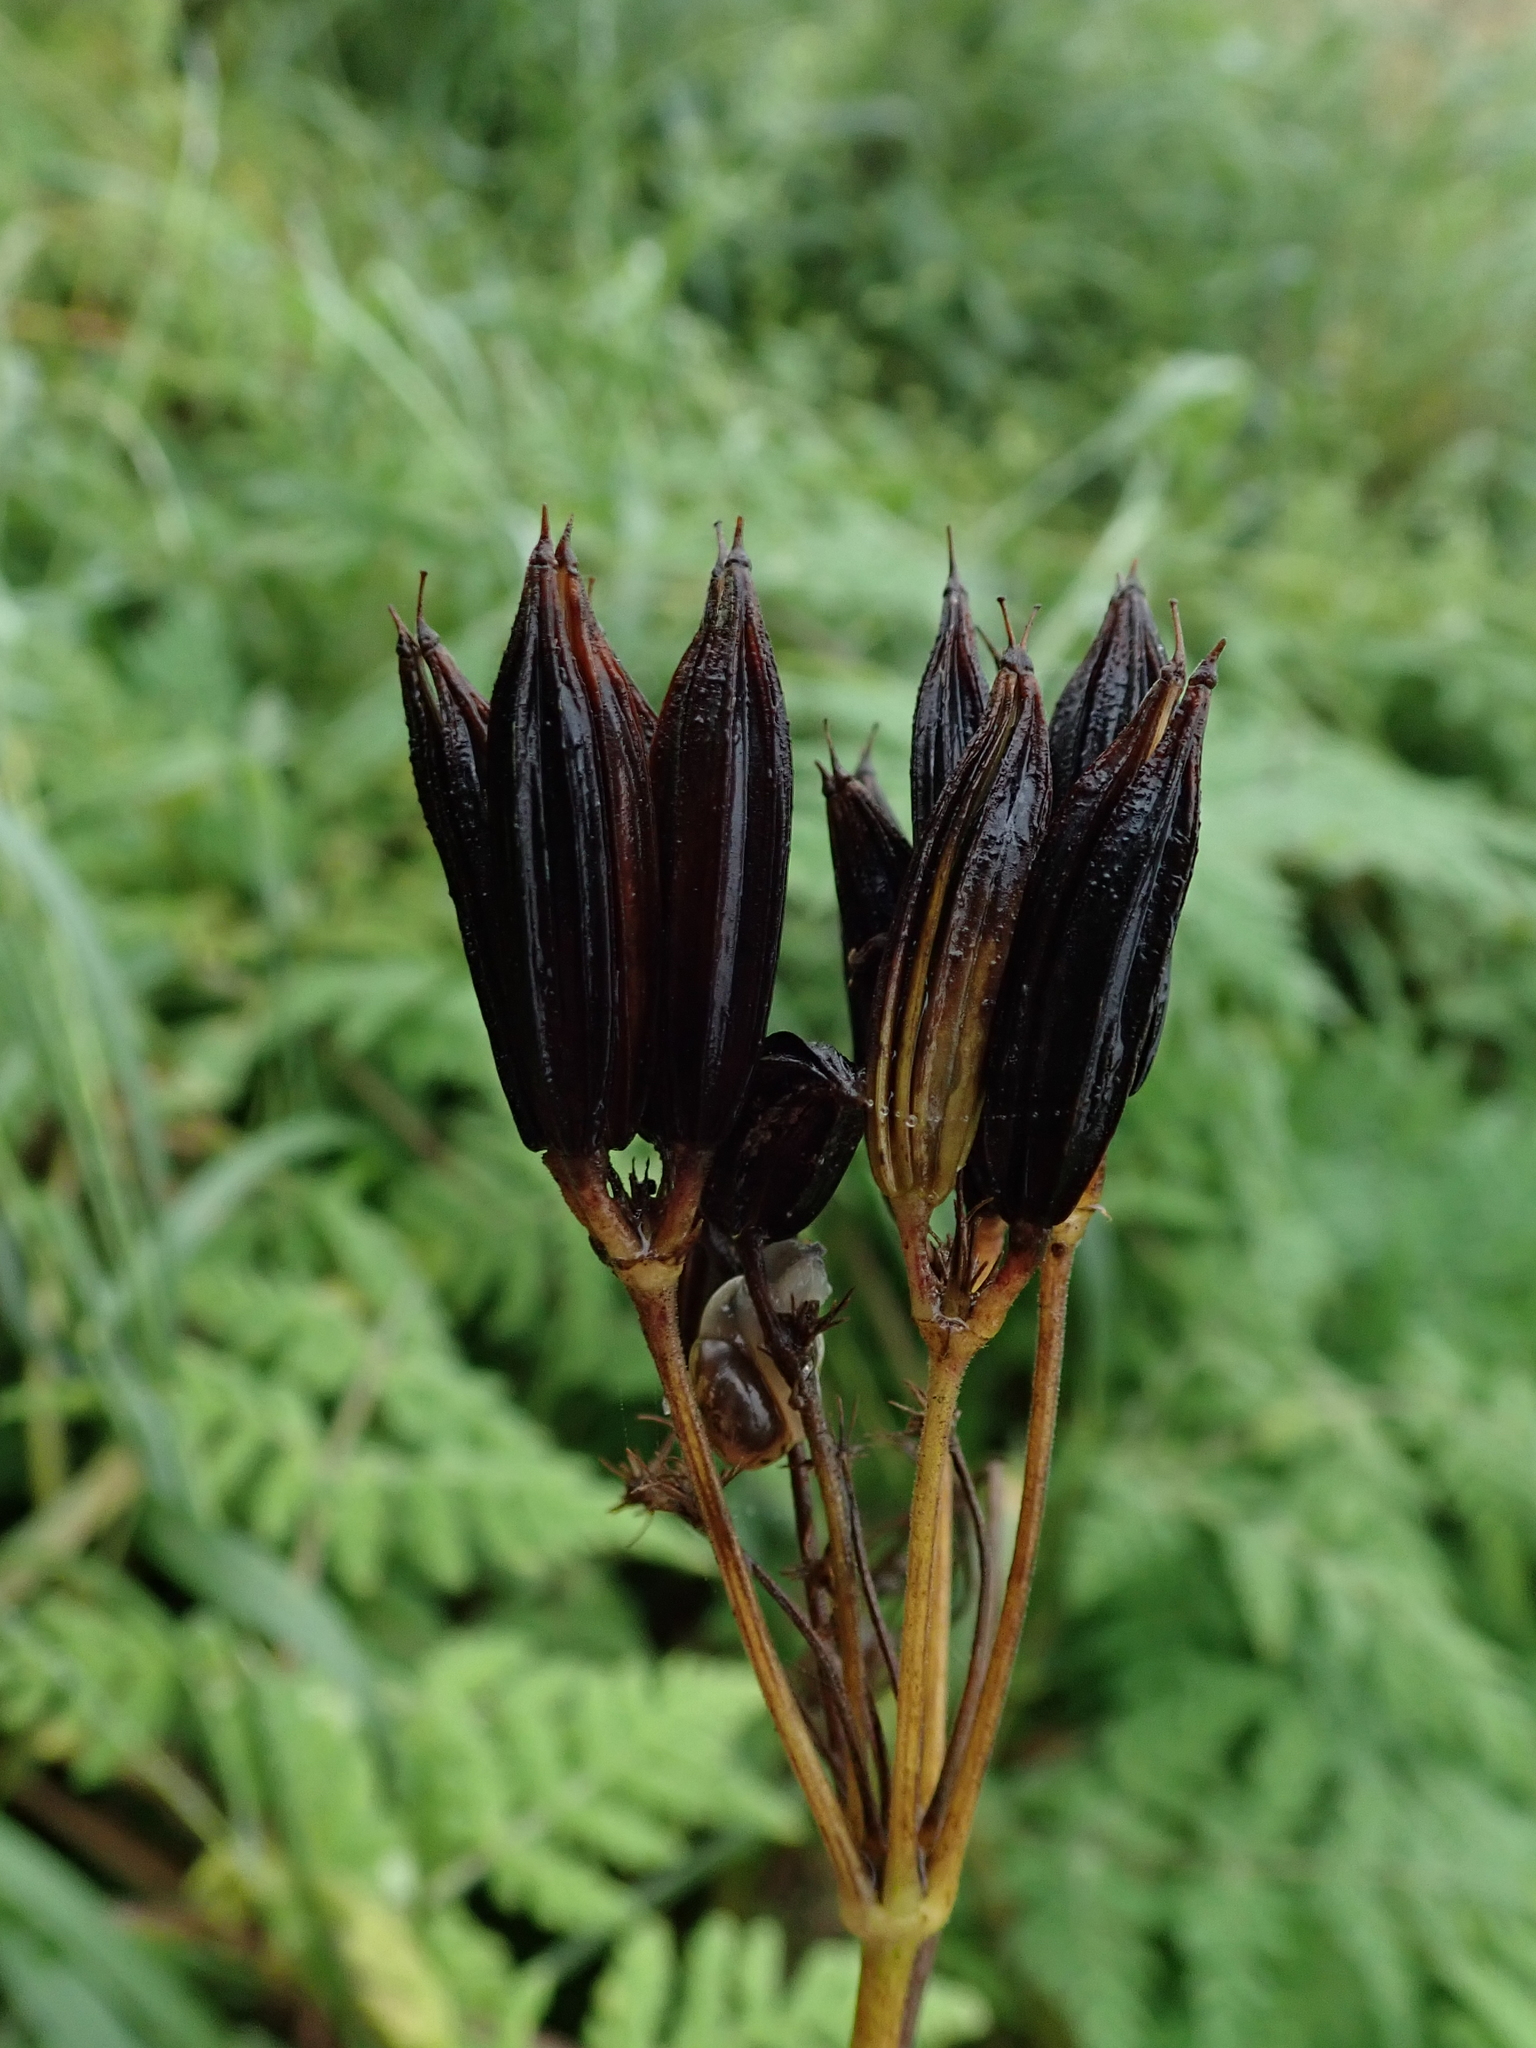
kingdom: Plantae
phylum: Tracheophyta
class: Magnoliopsida
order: Apiales
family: Apiaceae
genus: Myrrhis
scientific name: Myrrhis odorata
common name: Sweet cicely
